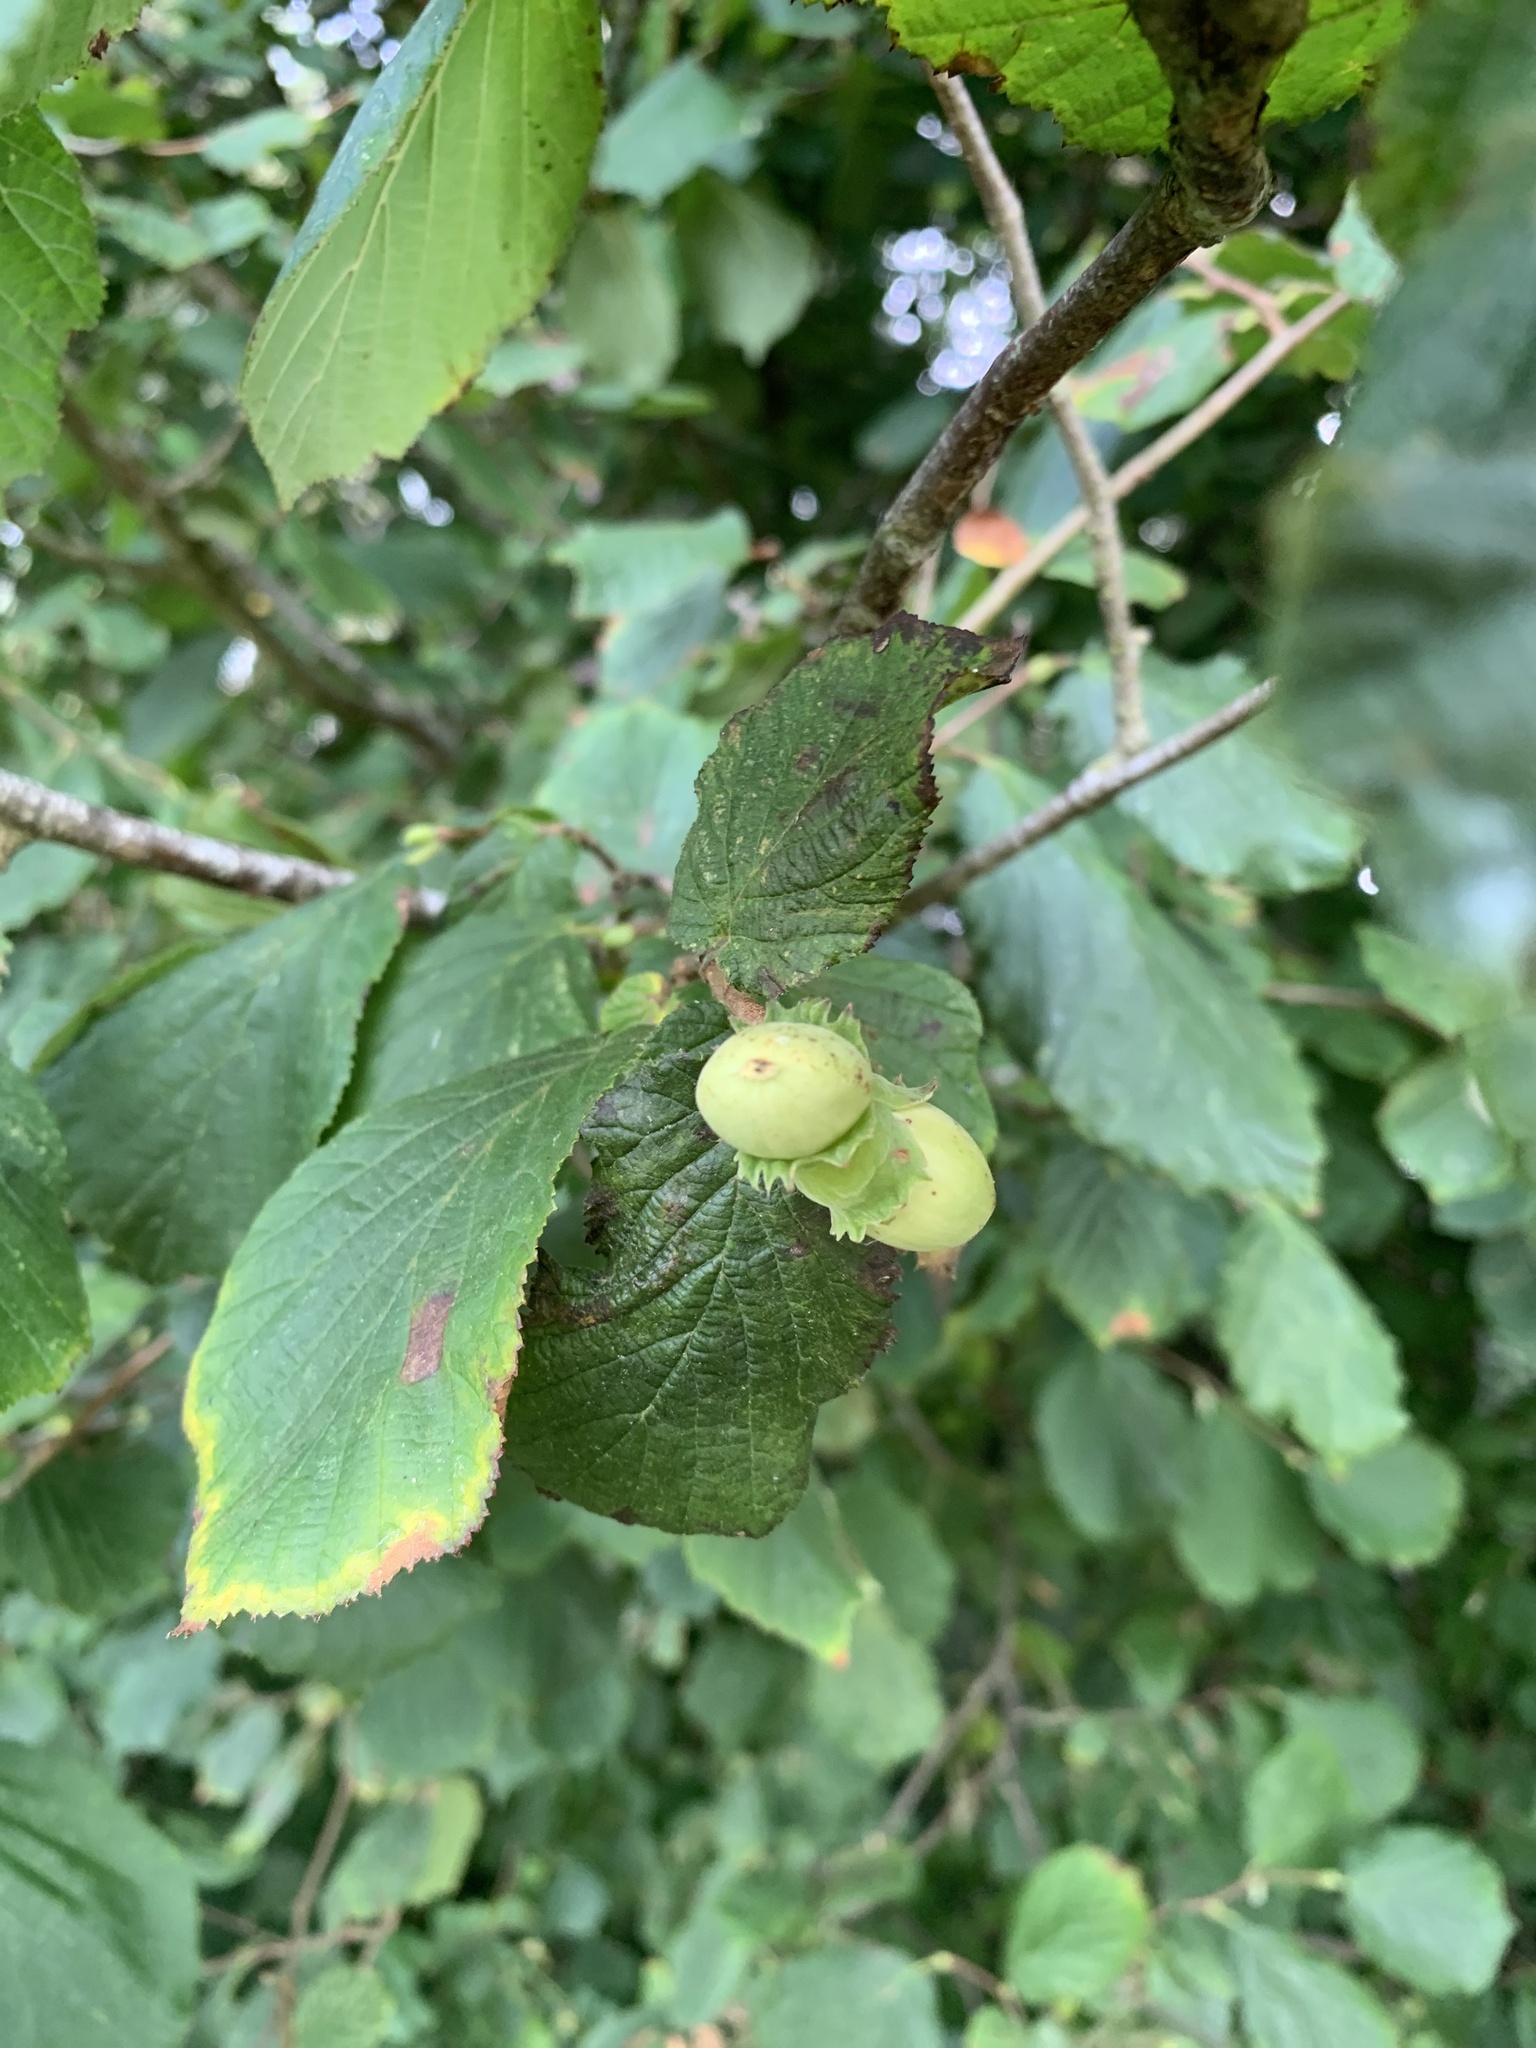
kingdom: Plantae
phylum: Tracheophyta
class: Magnoliopsida
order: Fagales
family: Betulaceae
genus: Corylus
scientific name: Corylus avellana
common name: European hazel
